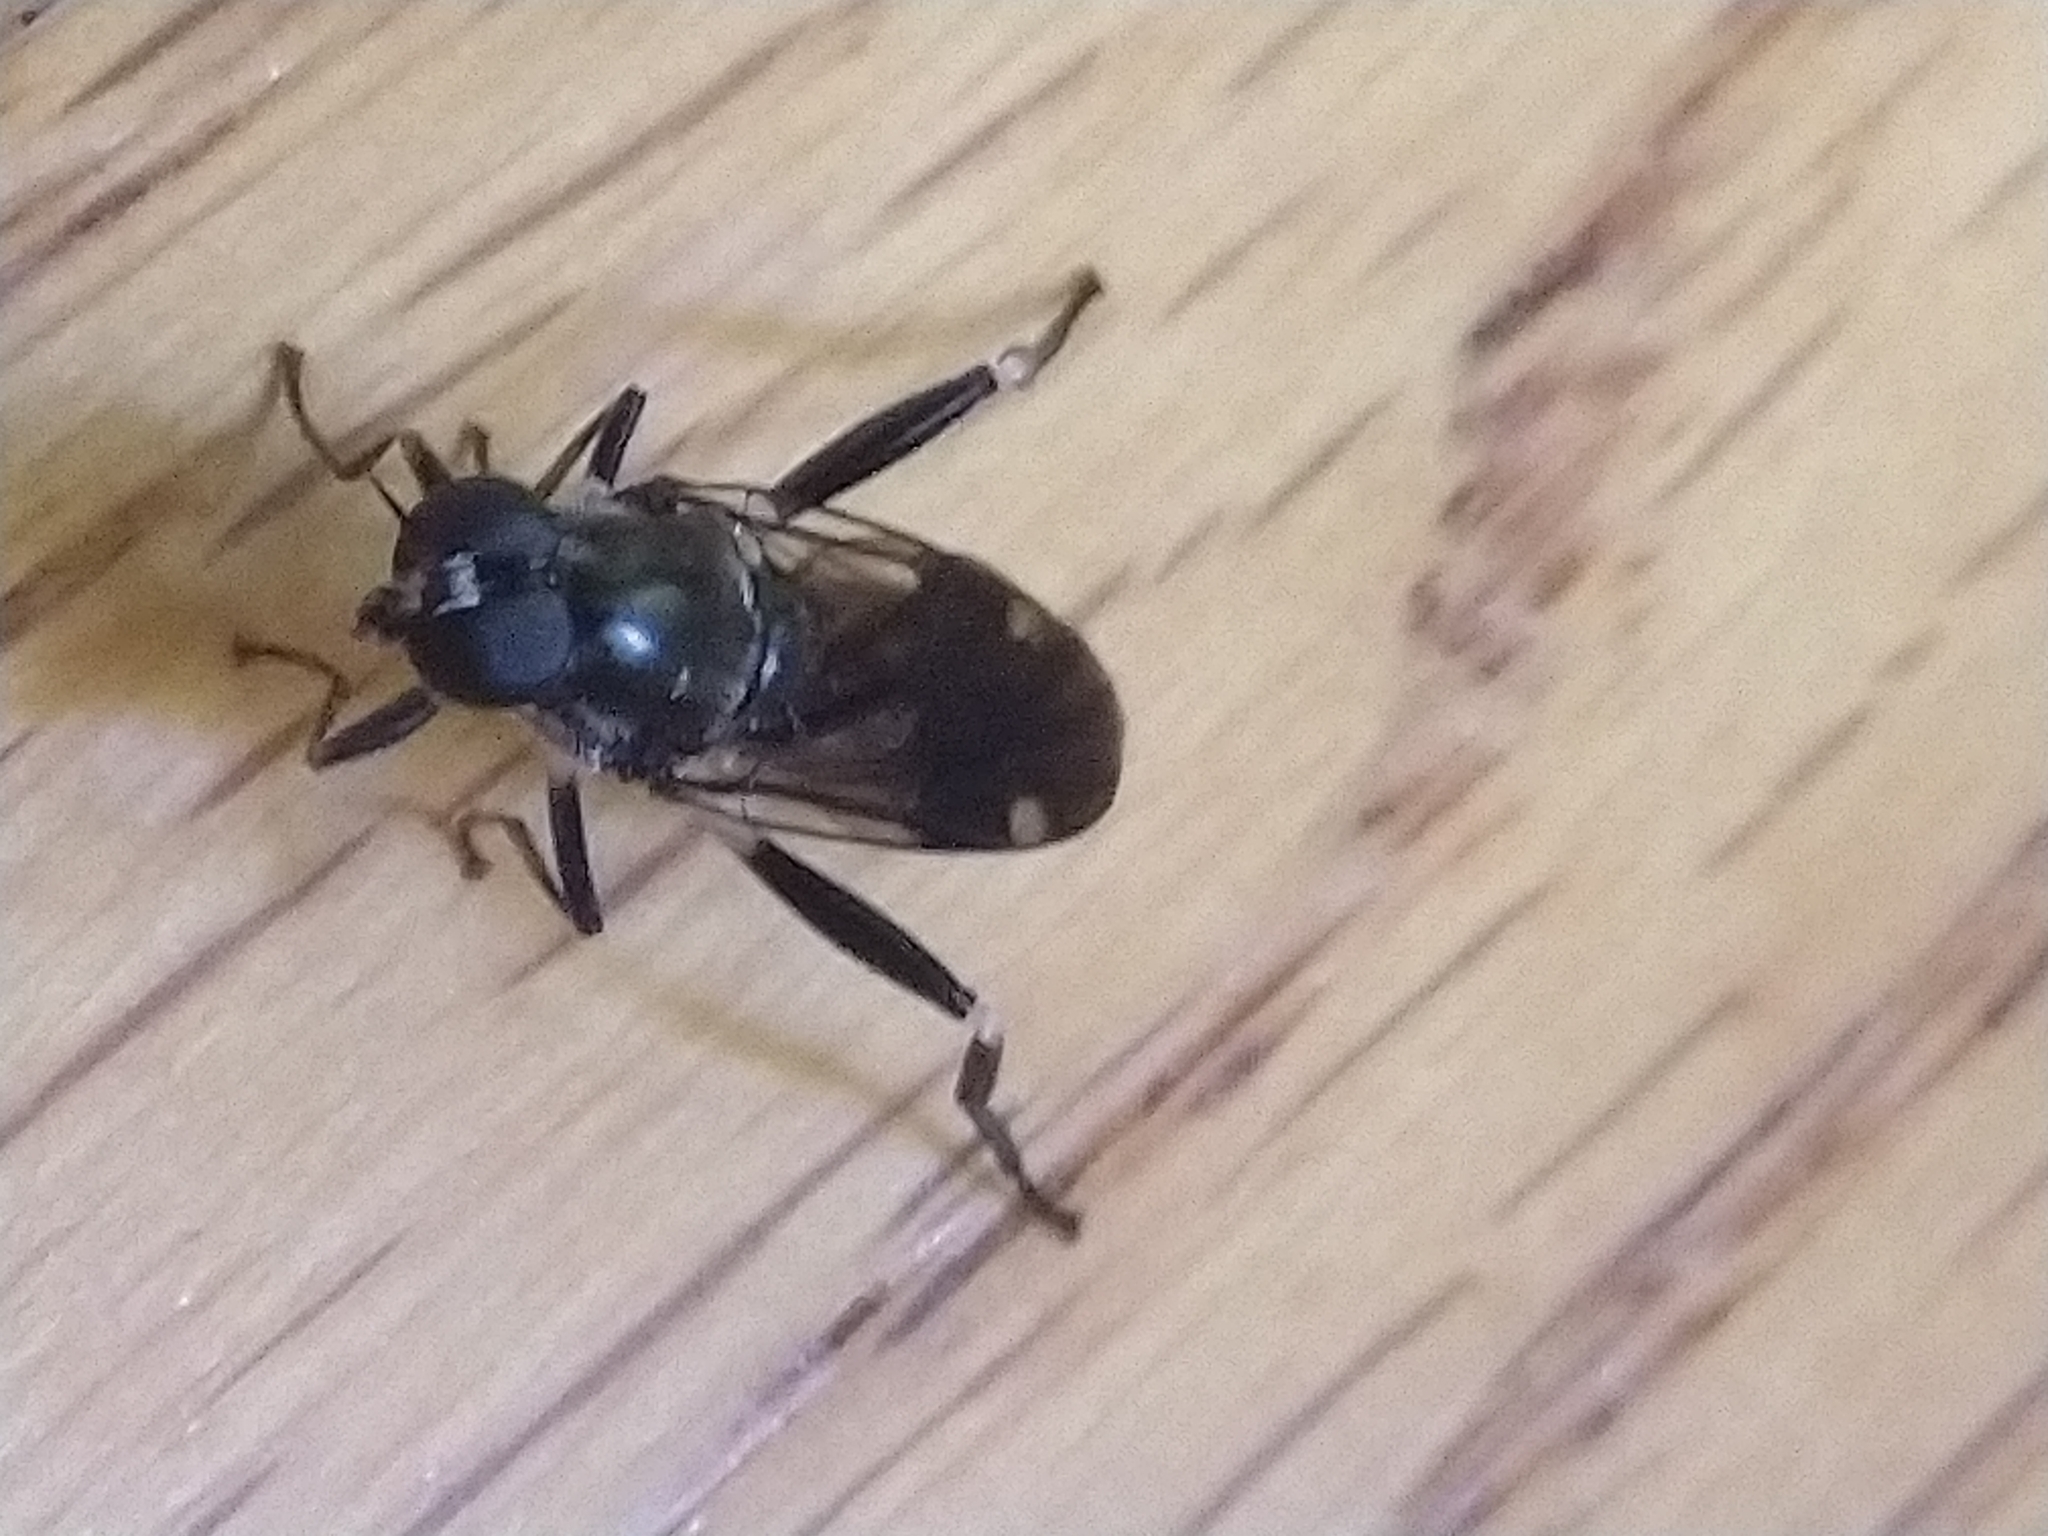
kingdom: Animalia
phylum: Arthropoda
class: Insecta
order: Diptera
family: Stratiomyidae
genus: Exaireta
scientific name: Exaireta spinigera
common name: Blue soldier fly
